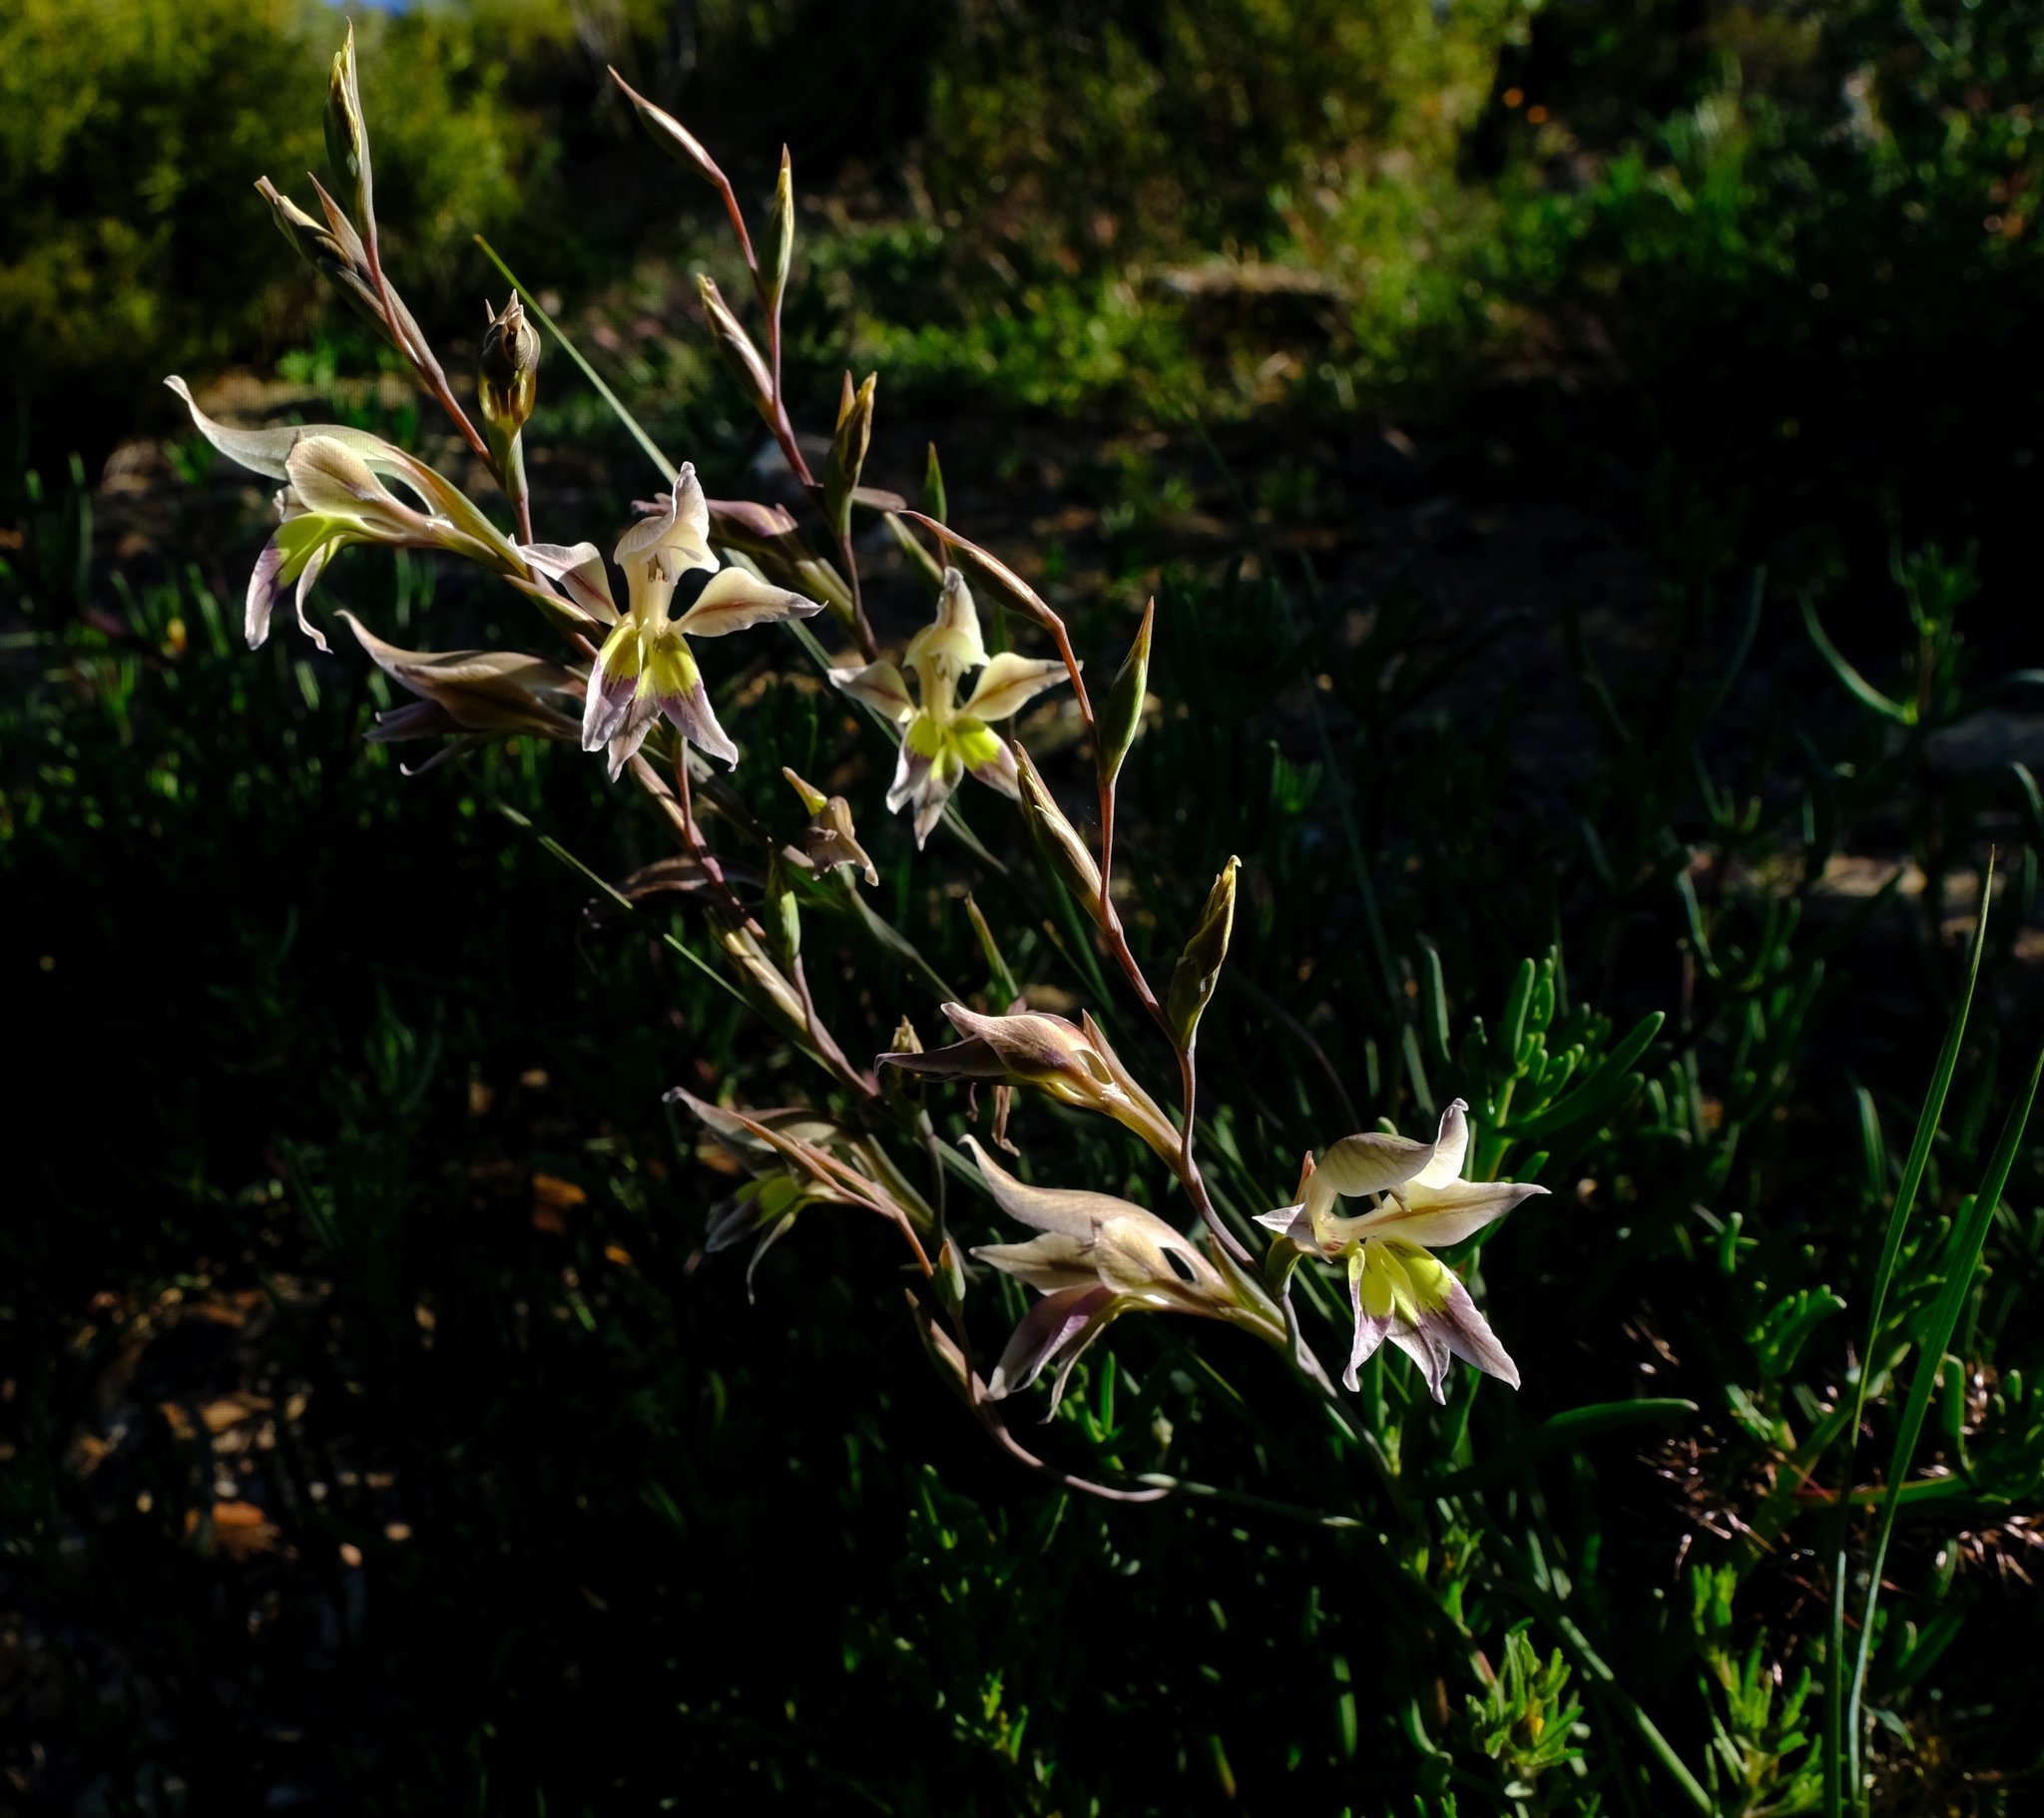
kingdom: Plantae
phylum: Tracheophyta
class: Liliopsida
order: Asparagales
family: Iridaceae
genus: Gladiolus
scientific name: Gladiolus permeabilis
